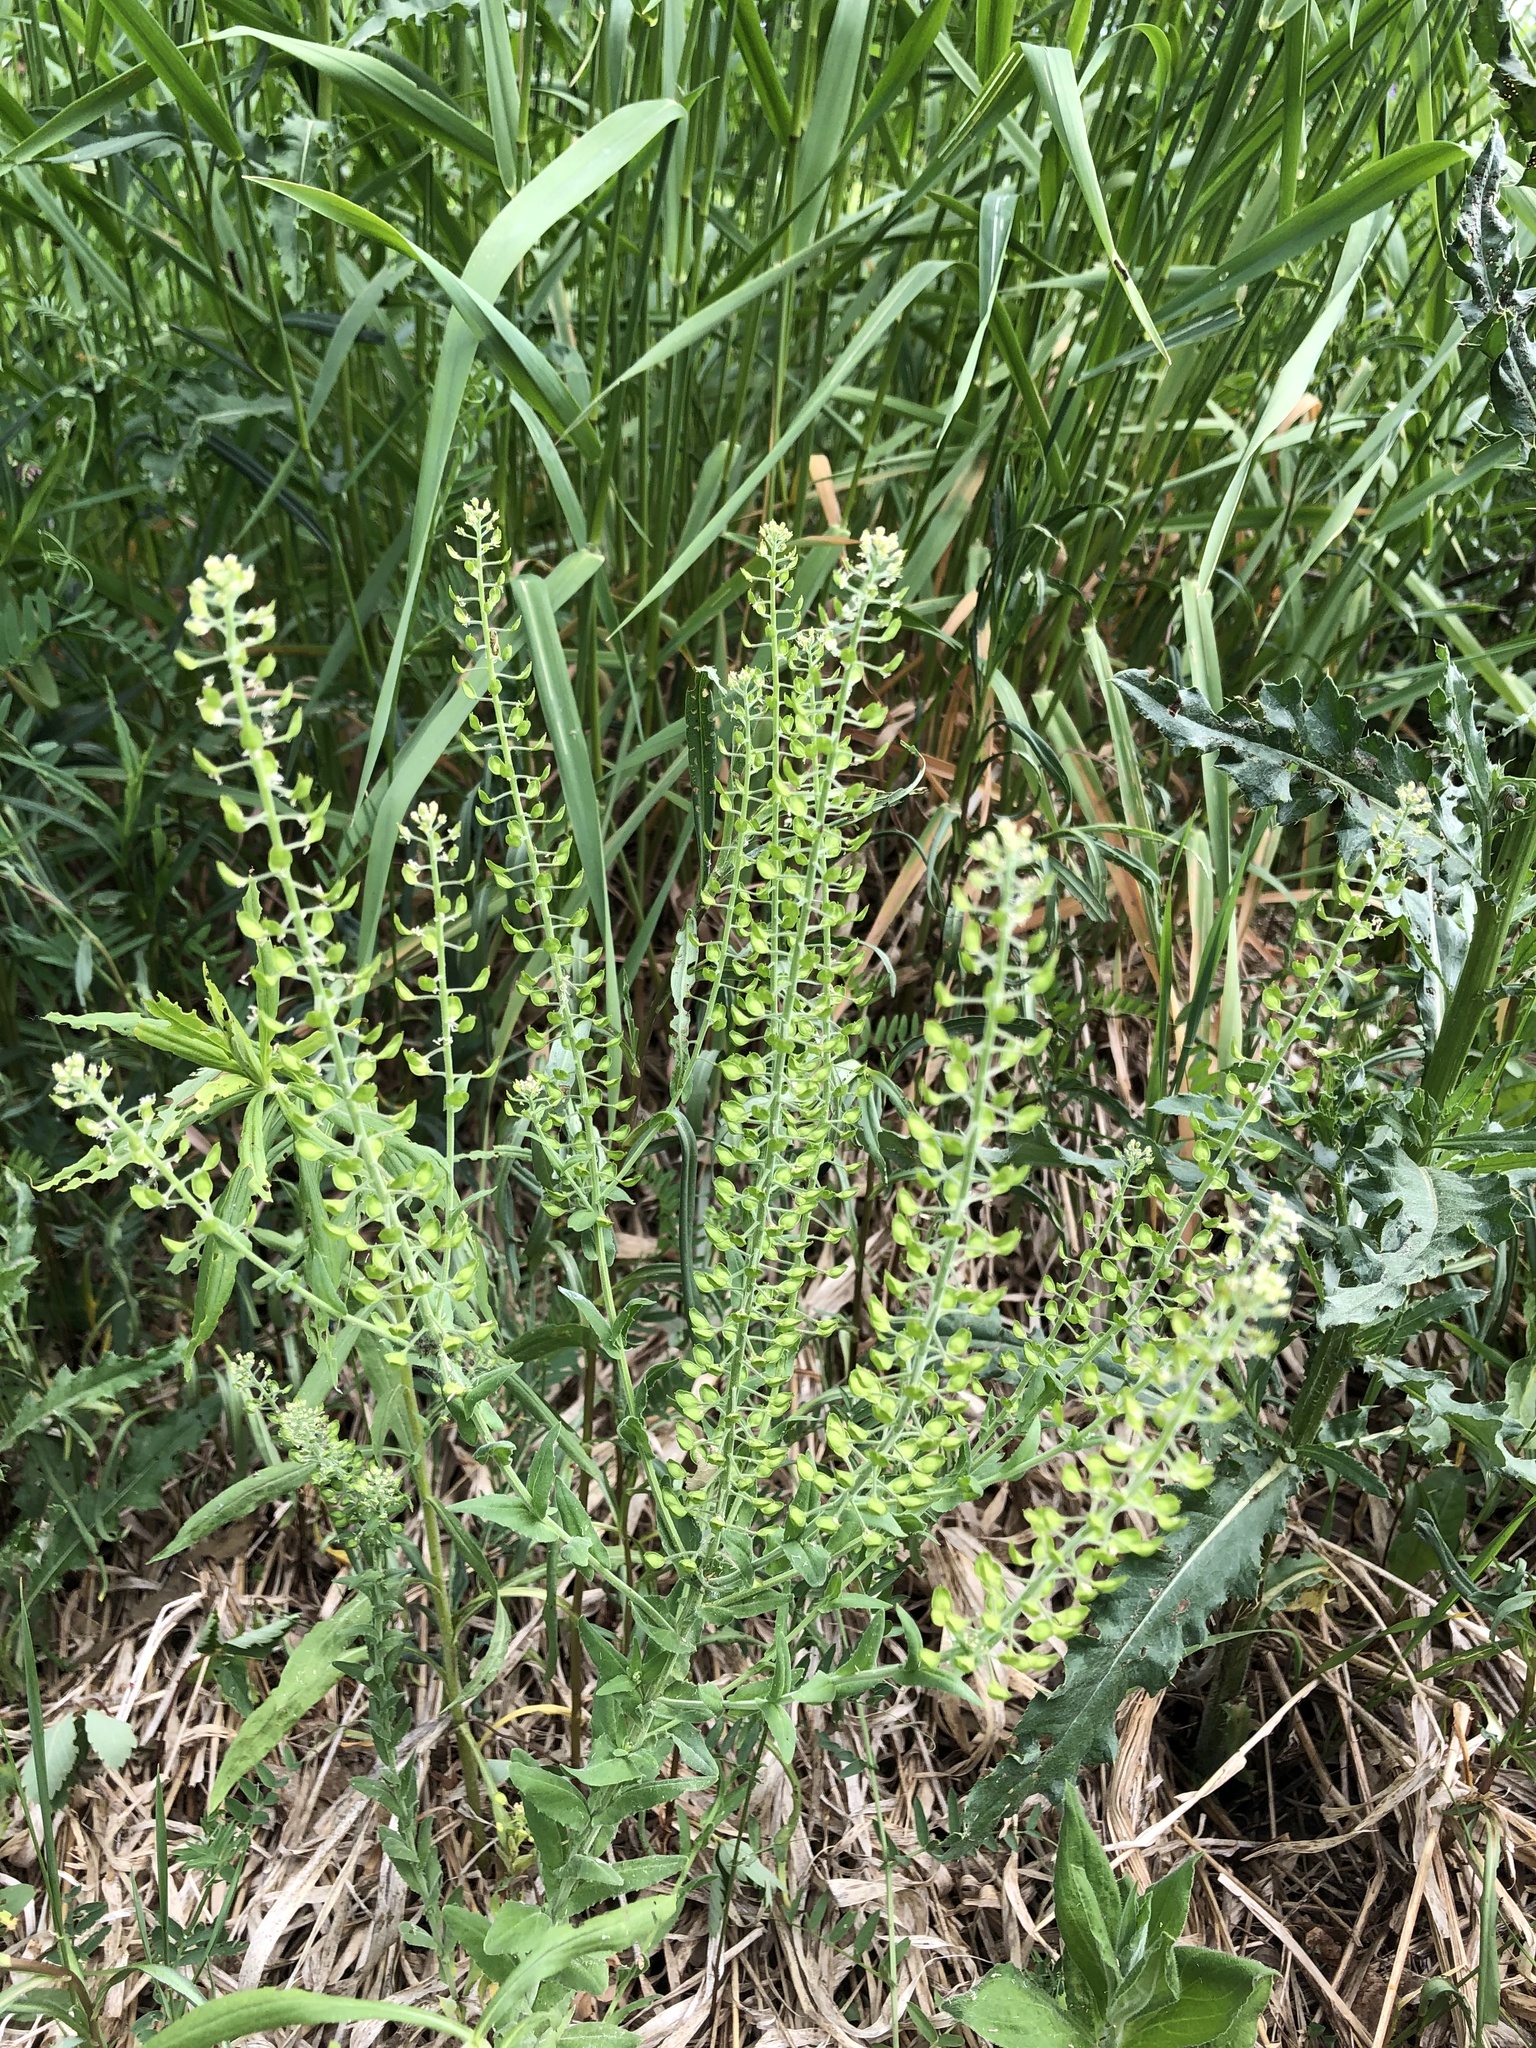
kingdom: Plantae
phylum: Tracheophyta
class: Magnoliopsida
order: Brassicales
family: Brassicaceae
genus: Lepidium
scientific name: Lepidium campestre
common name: Field pepperwort
